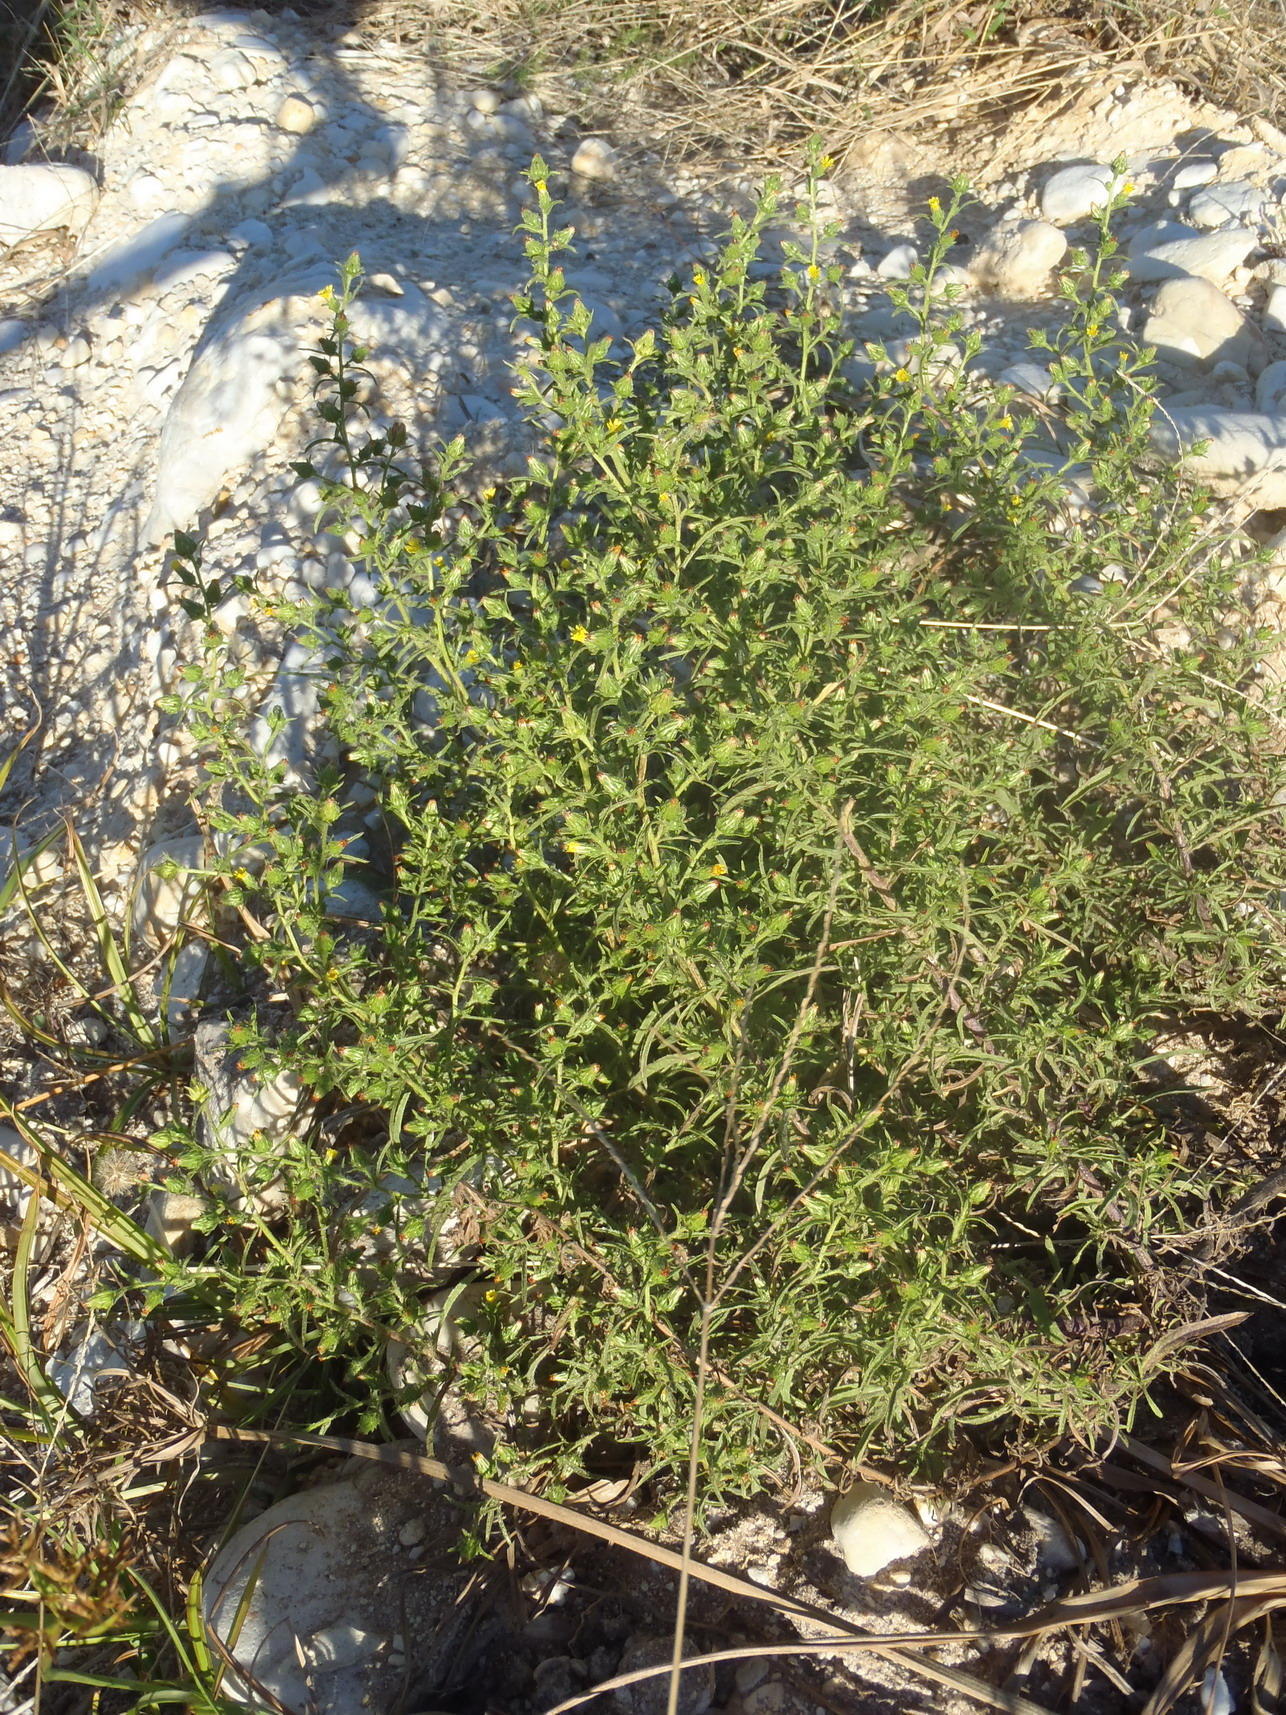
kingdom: Plantae
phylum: Tracheophyta
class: Magnoliopsida
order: Asterales
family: Asteraceae
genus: Dittrichia
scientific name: Dittrichia graveolens
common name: Stinking fleabane
